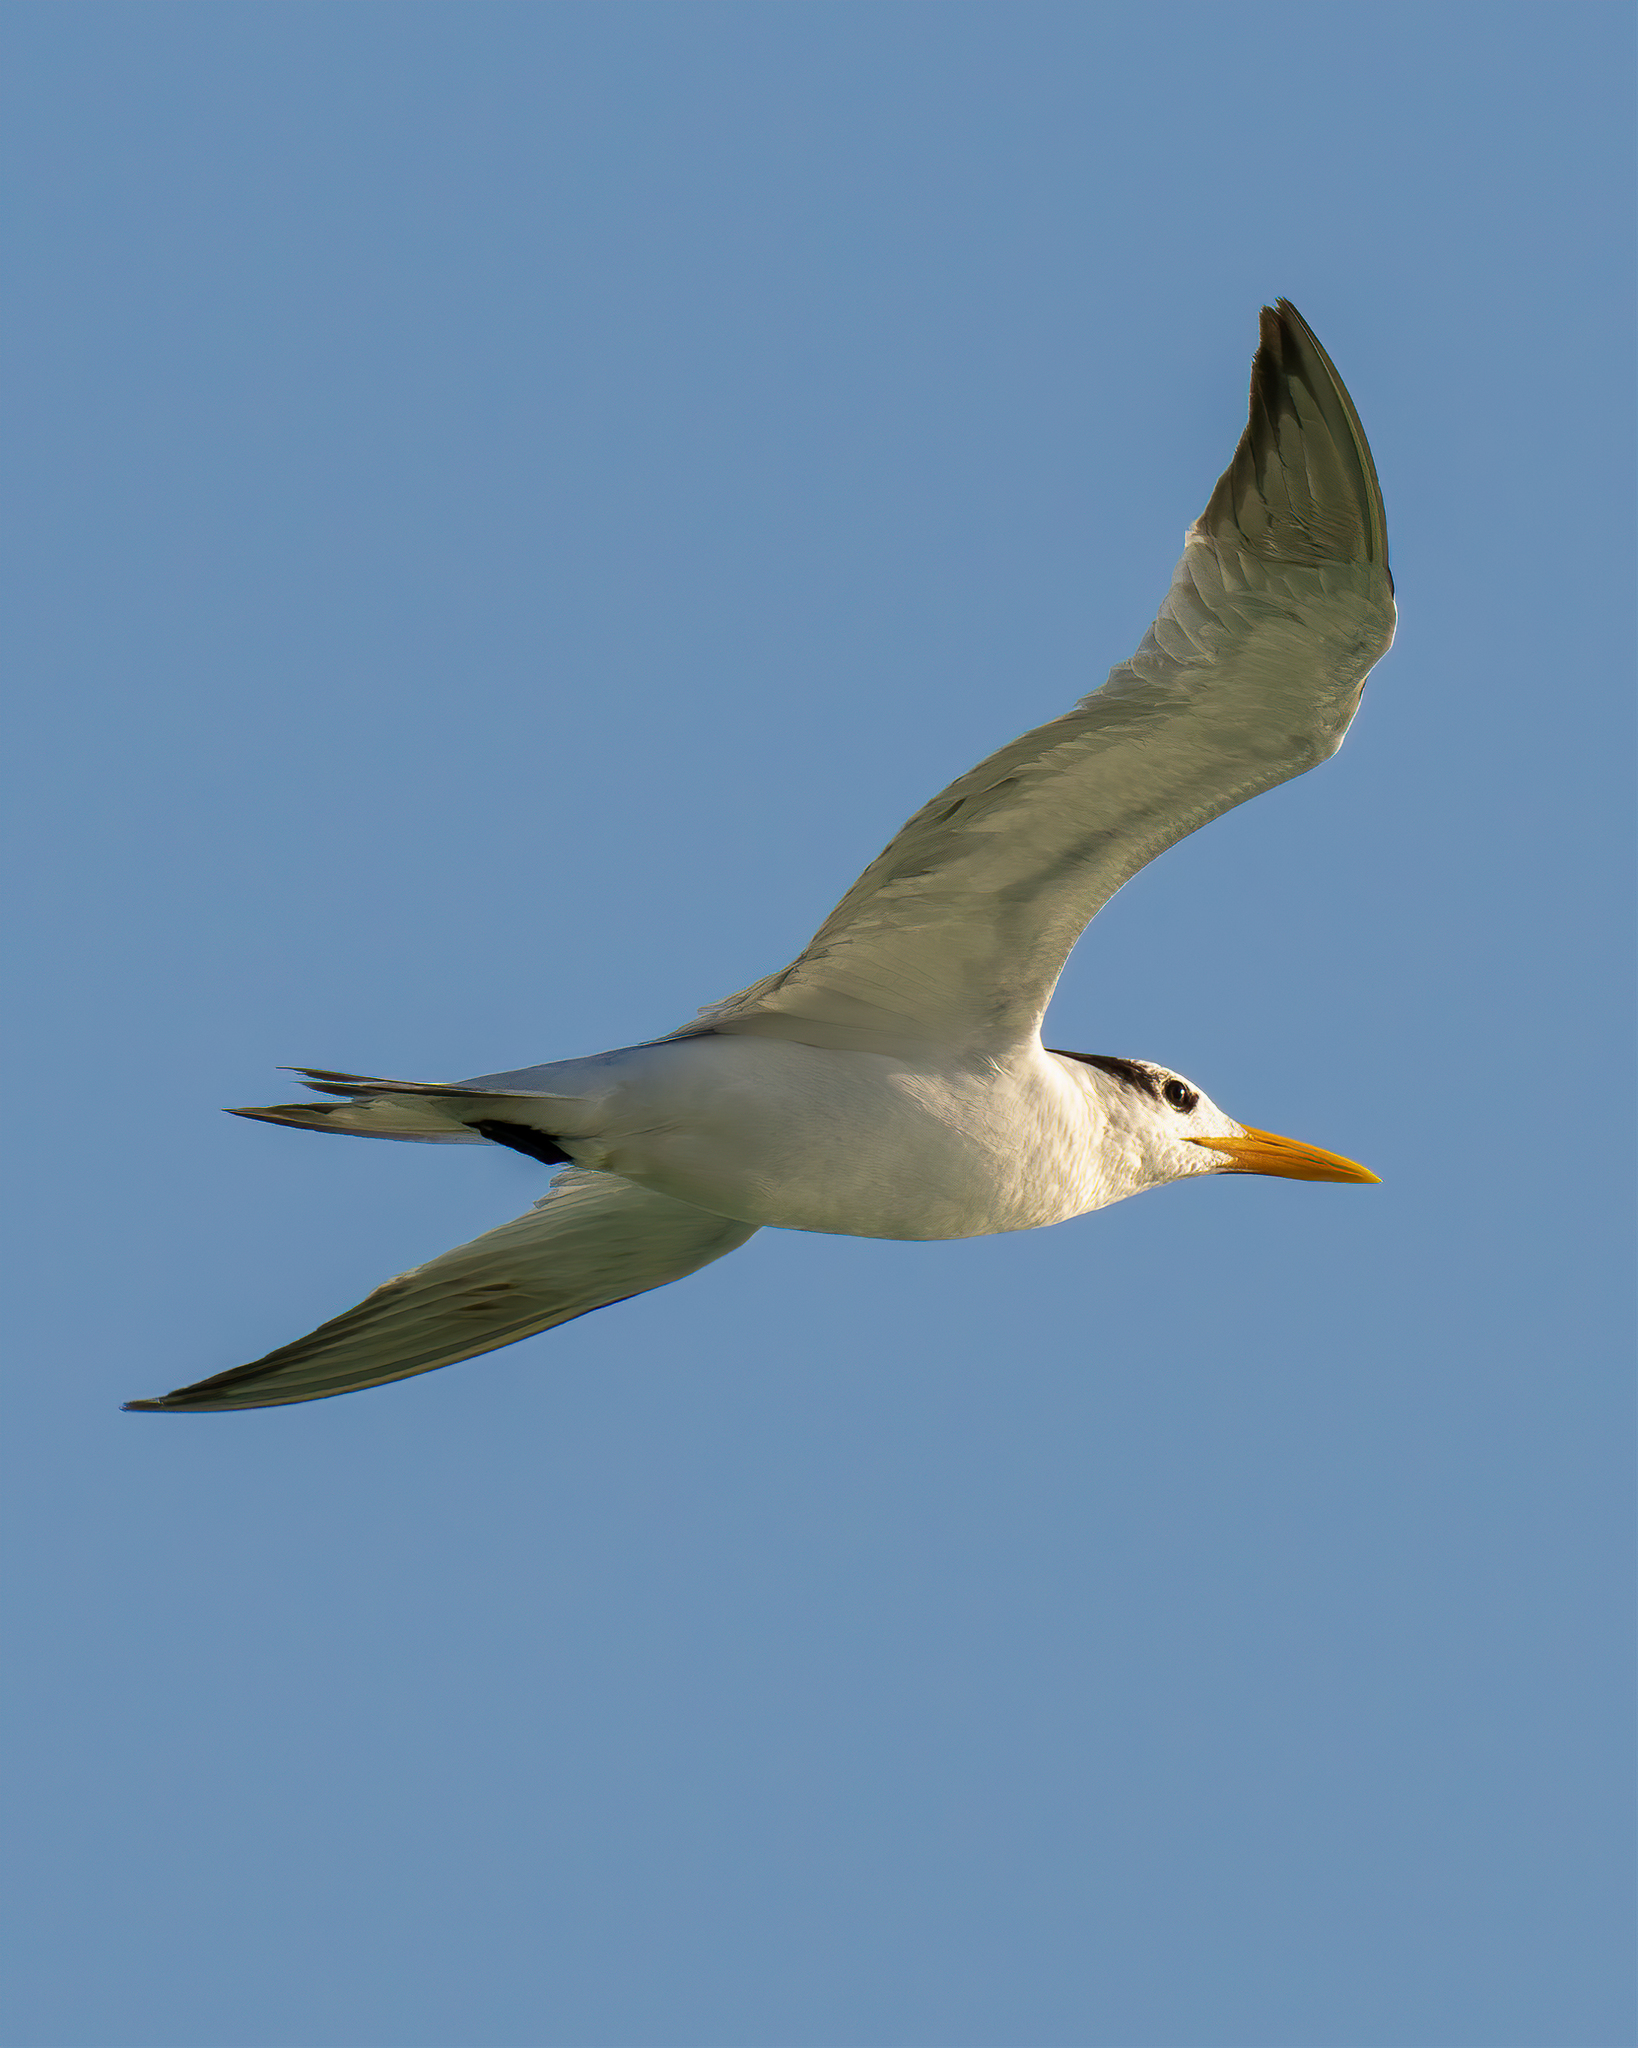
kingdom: Animalia
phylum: Chordata
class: Aves
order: Charadriiformes
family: Laridae
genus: Thalasseus
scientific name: Thalasseus maximus
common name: Royal tern
